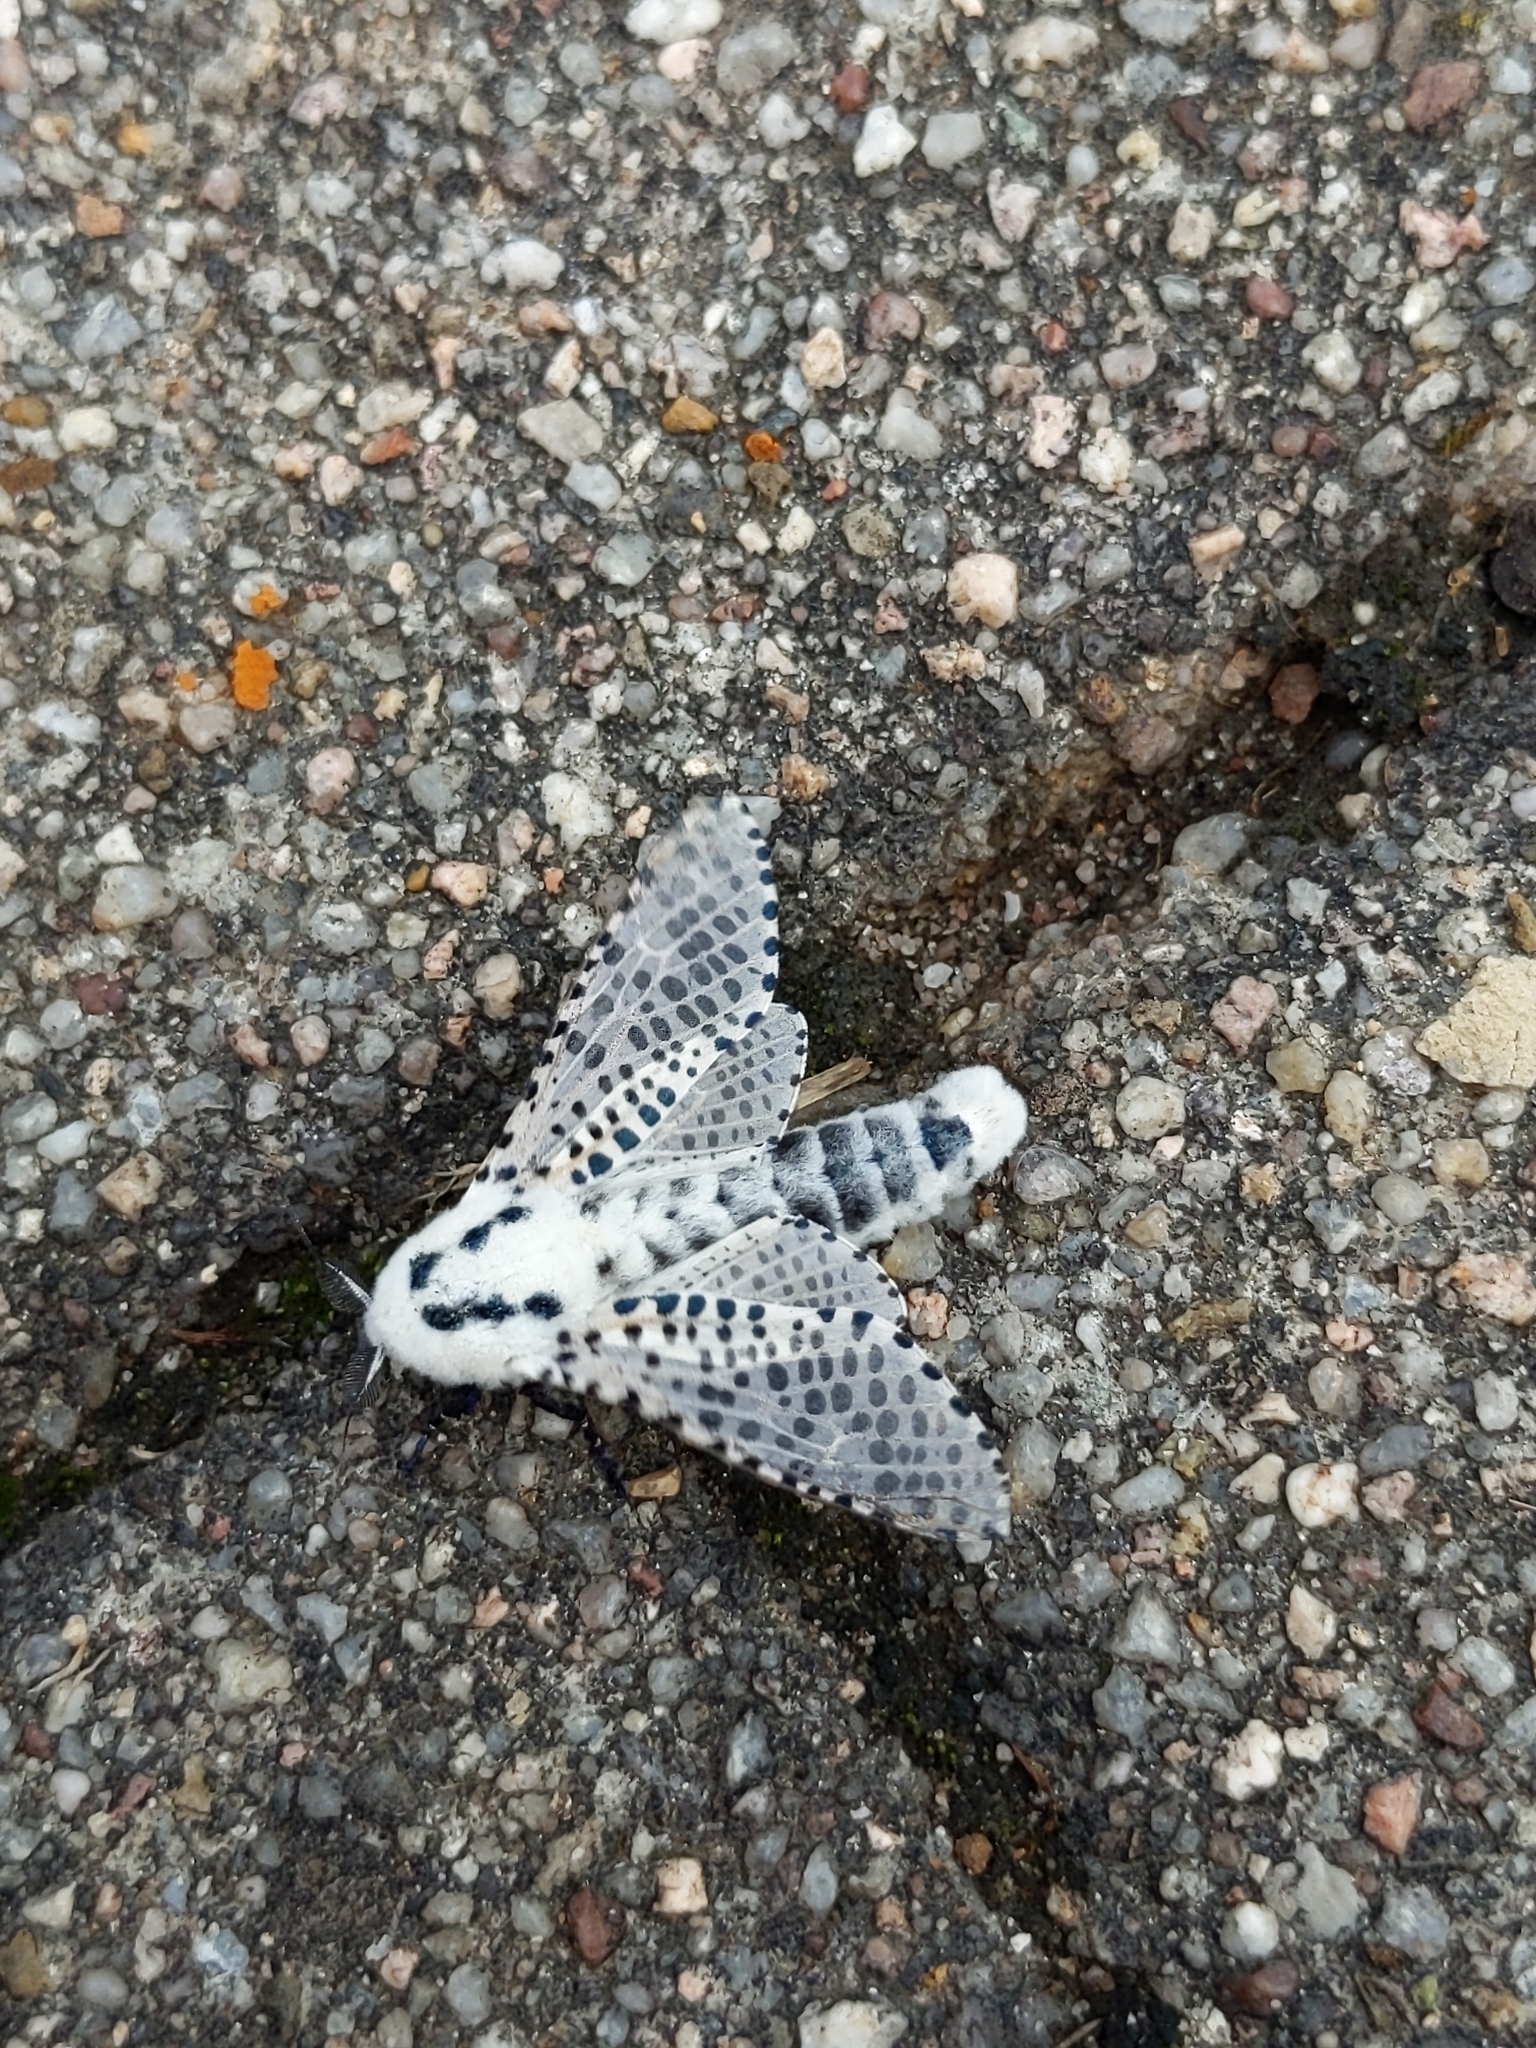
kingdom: Animalia
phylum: Arthropoda
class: Insecta
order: Lepidoptera
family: Cossidae
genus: Zeuzera
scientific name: Zeuzera pyrina
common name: Leopard moth
